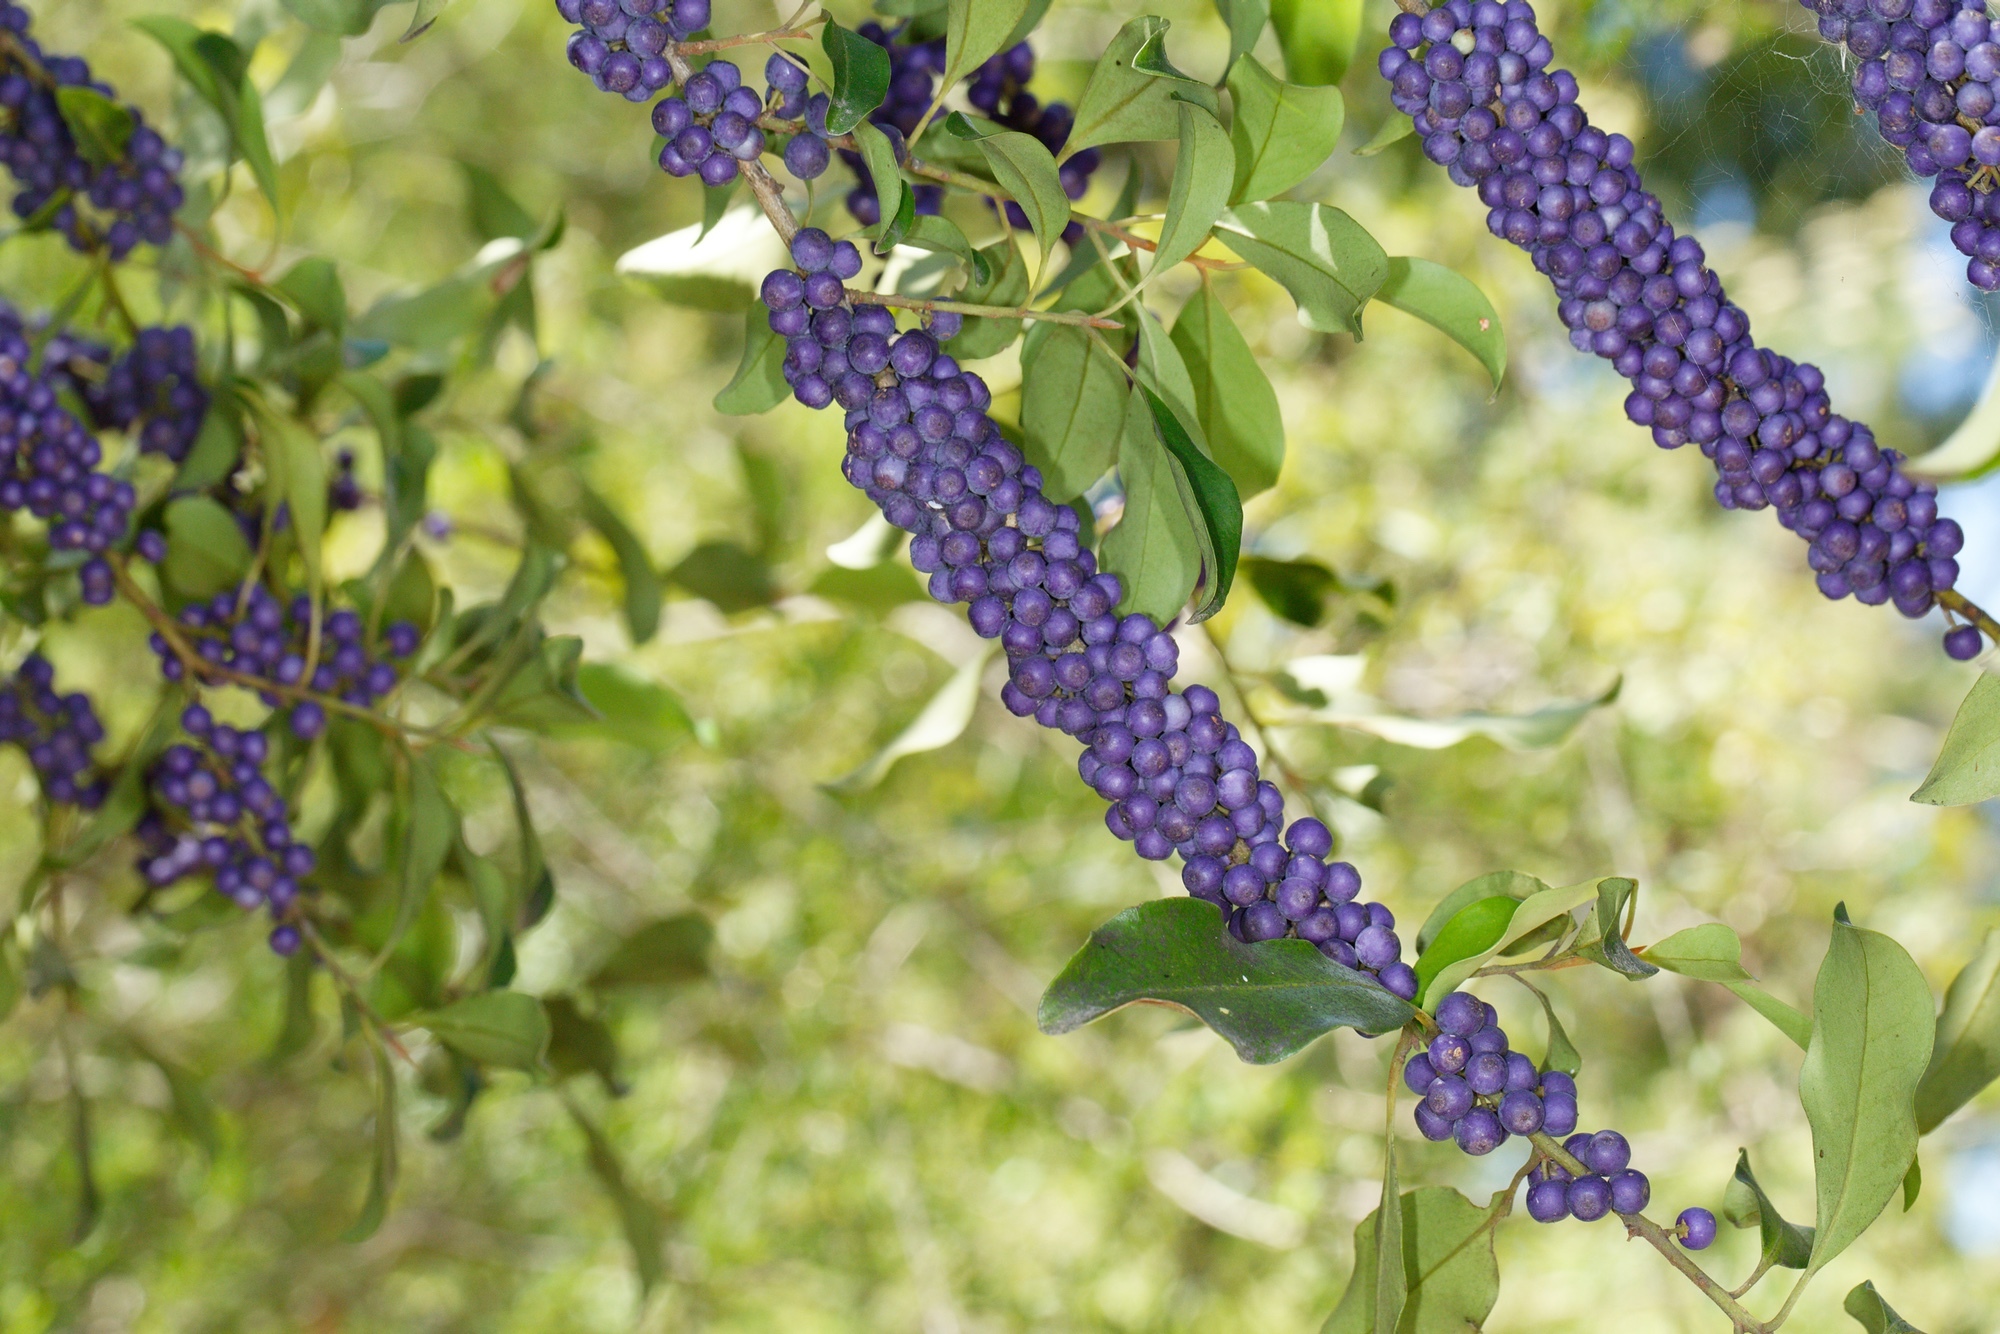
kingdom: Plantae
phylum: Tracheophyta
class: Magnoliopsida
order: Ericales
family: Primulaceae
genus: Myrsine
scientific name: Myrsine howittiana
